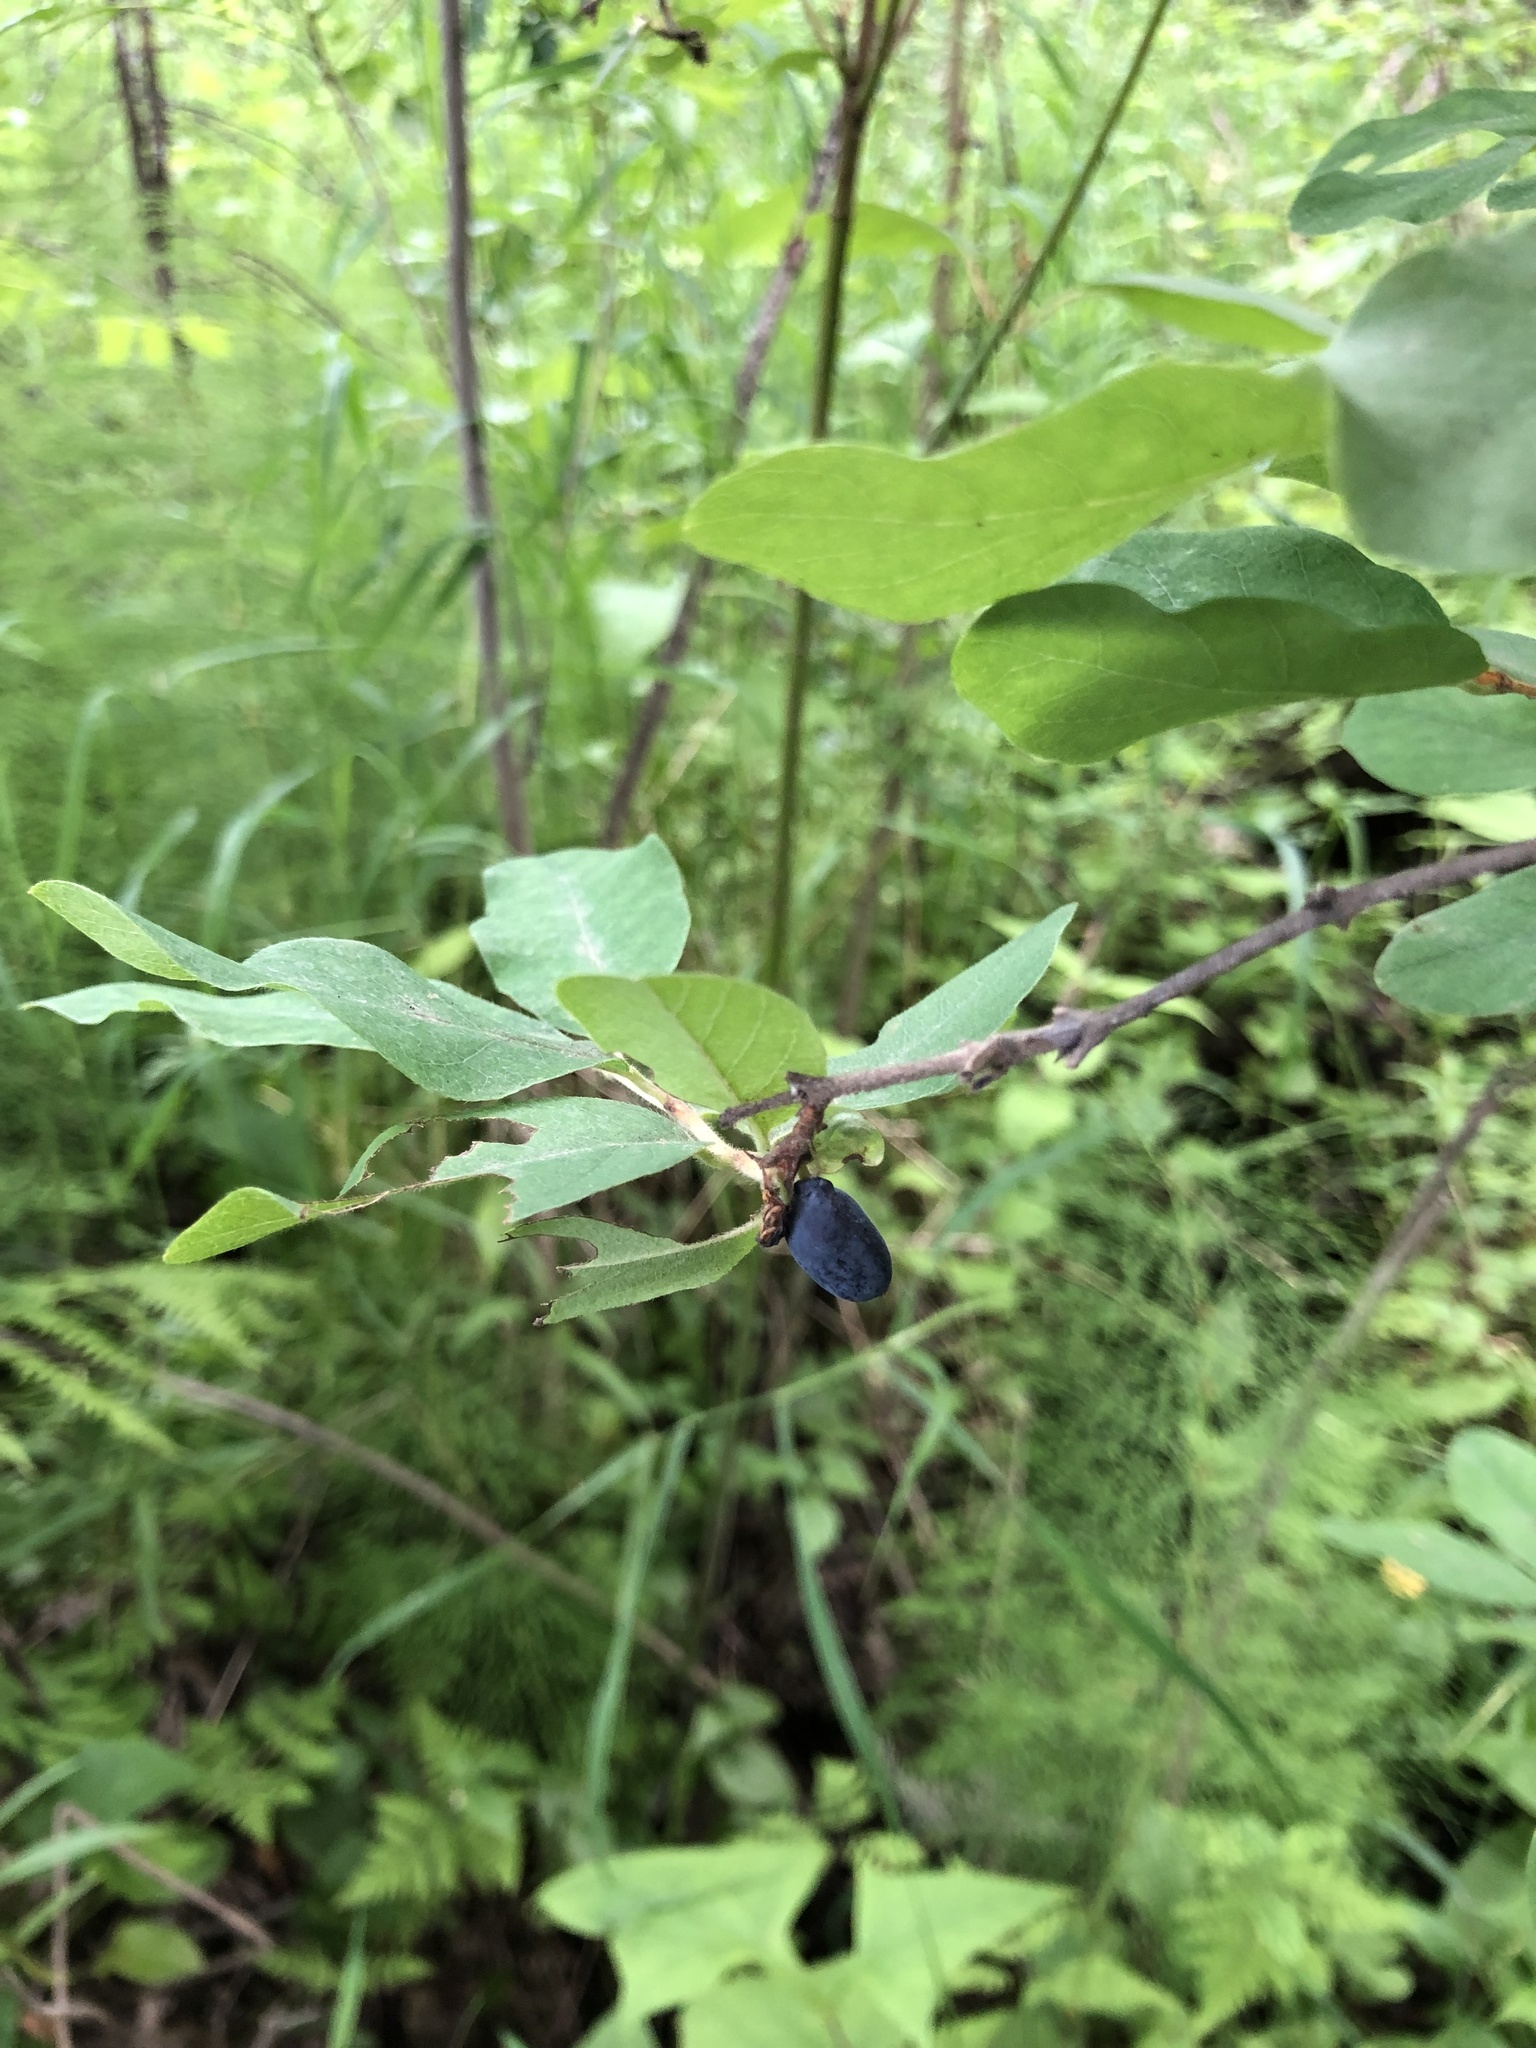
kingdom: Plantae
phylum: Tracheophyta
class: Magnoliopsida
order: Dipsacales
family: Caprifoliaceae
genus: Lonicera
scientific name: Lonicera caerulea
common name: Blue honeysuckle
